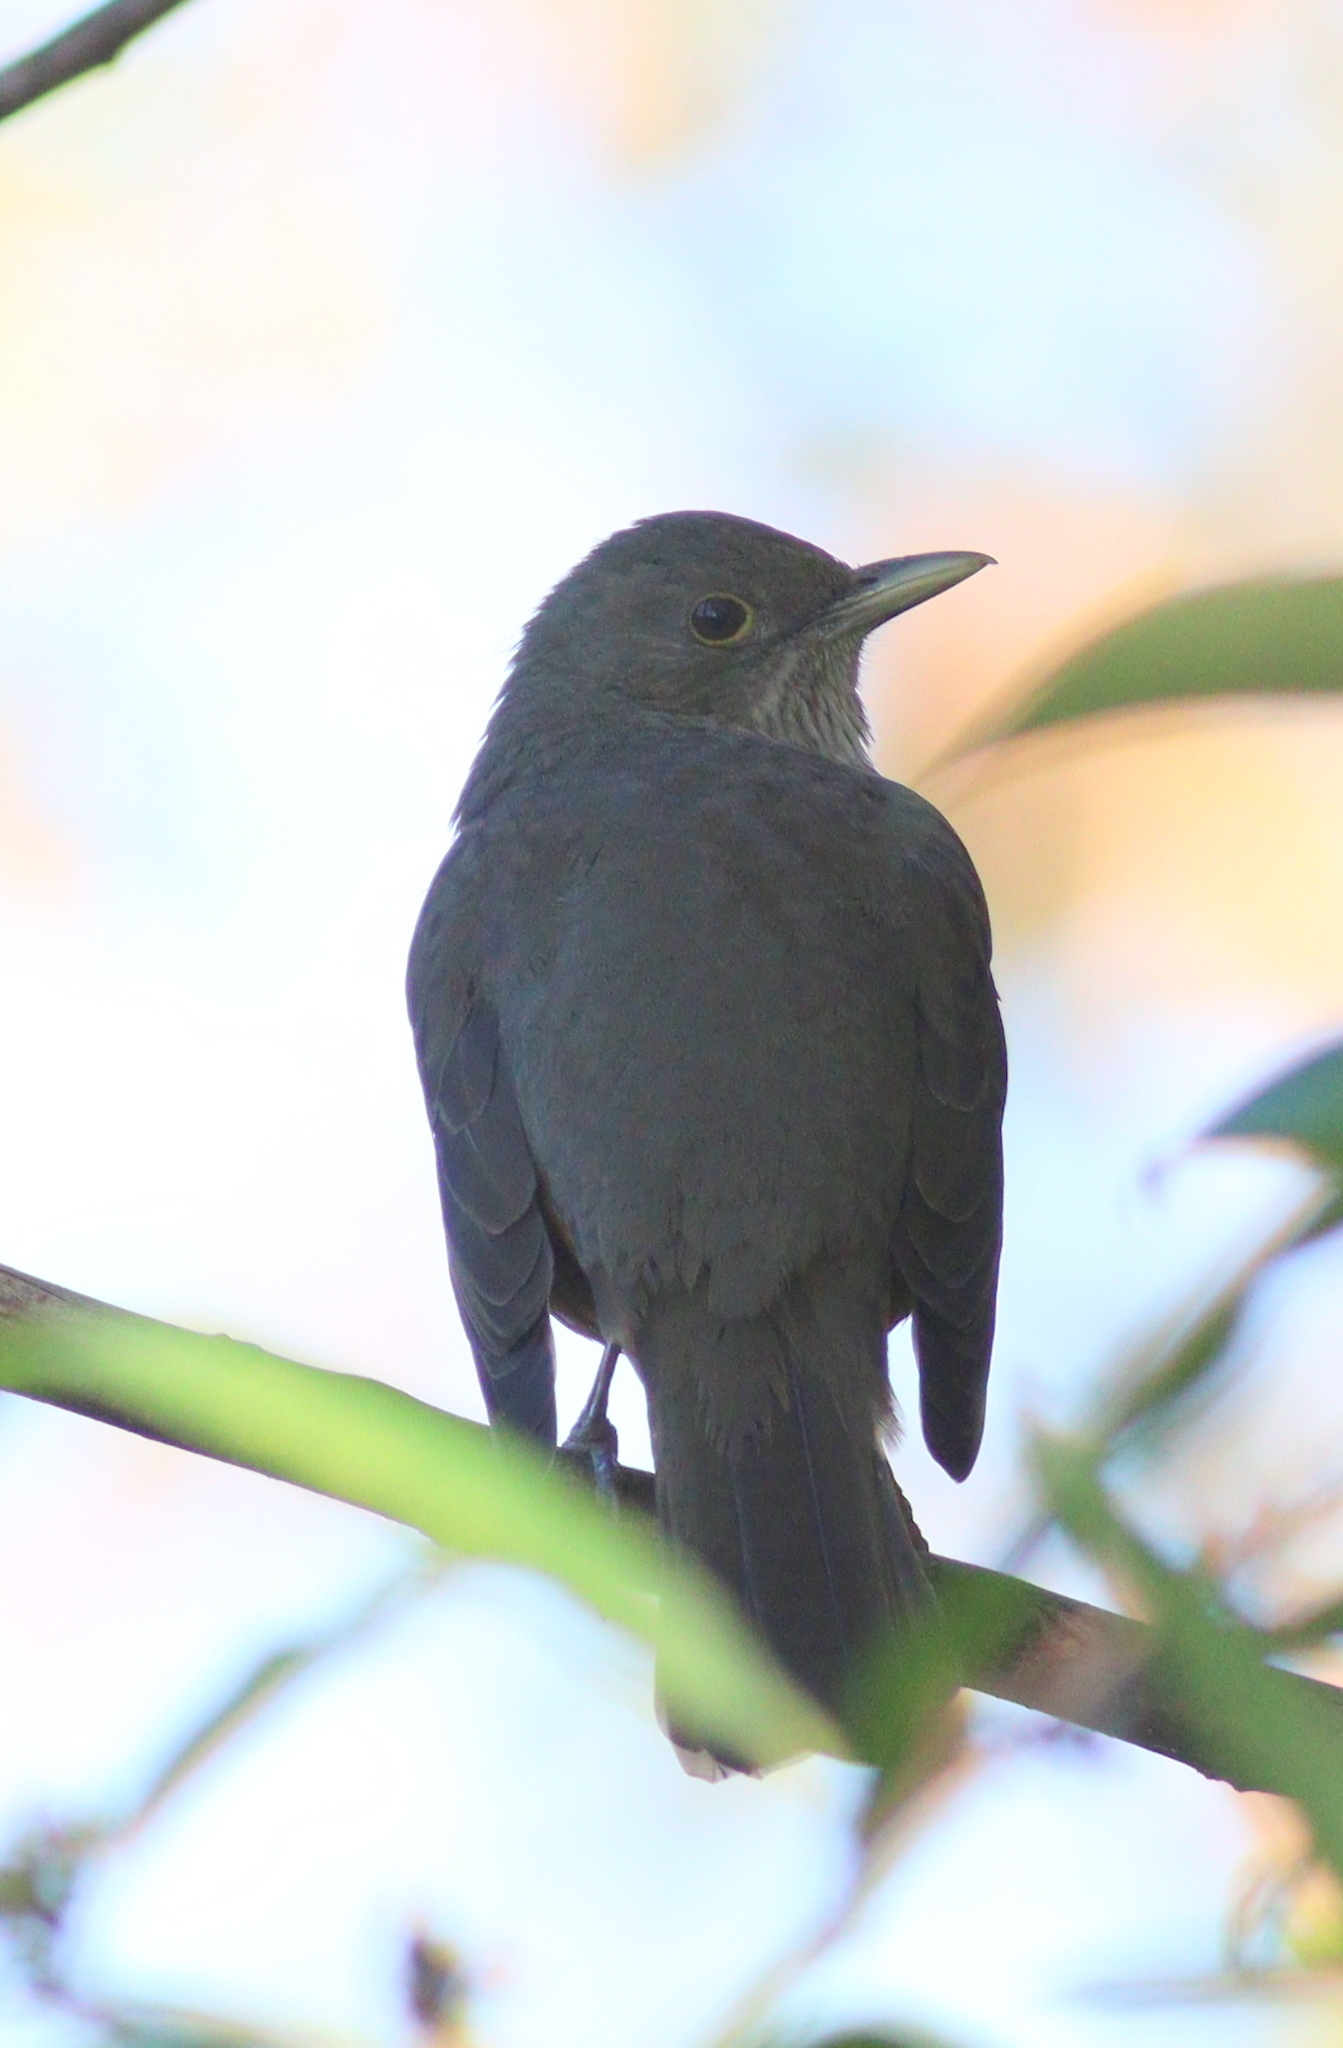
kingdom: Animalia
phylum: Chordata
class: Aves
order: Passeriformes
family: Turdidae
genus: Turdus
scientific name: Turdus rufiventris
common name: Rufous-bellied thrush
